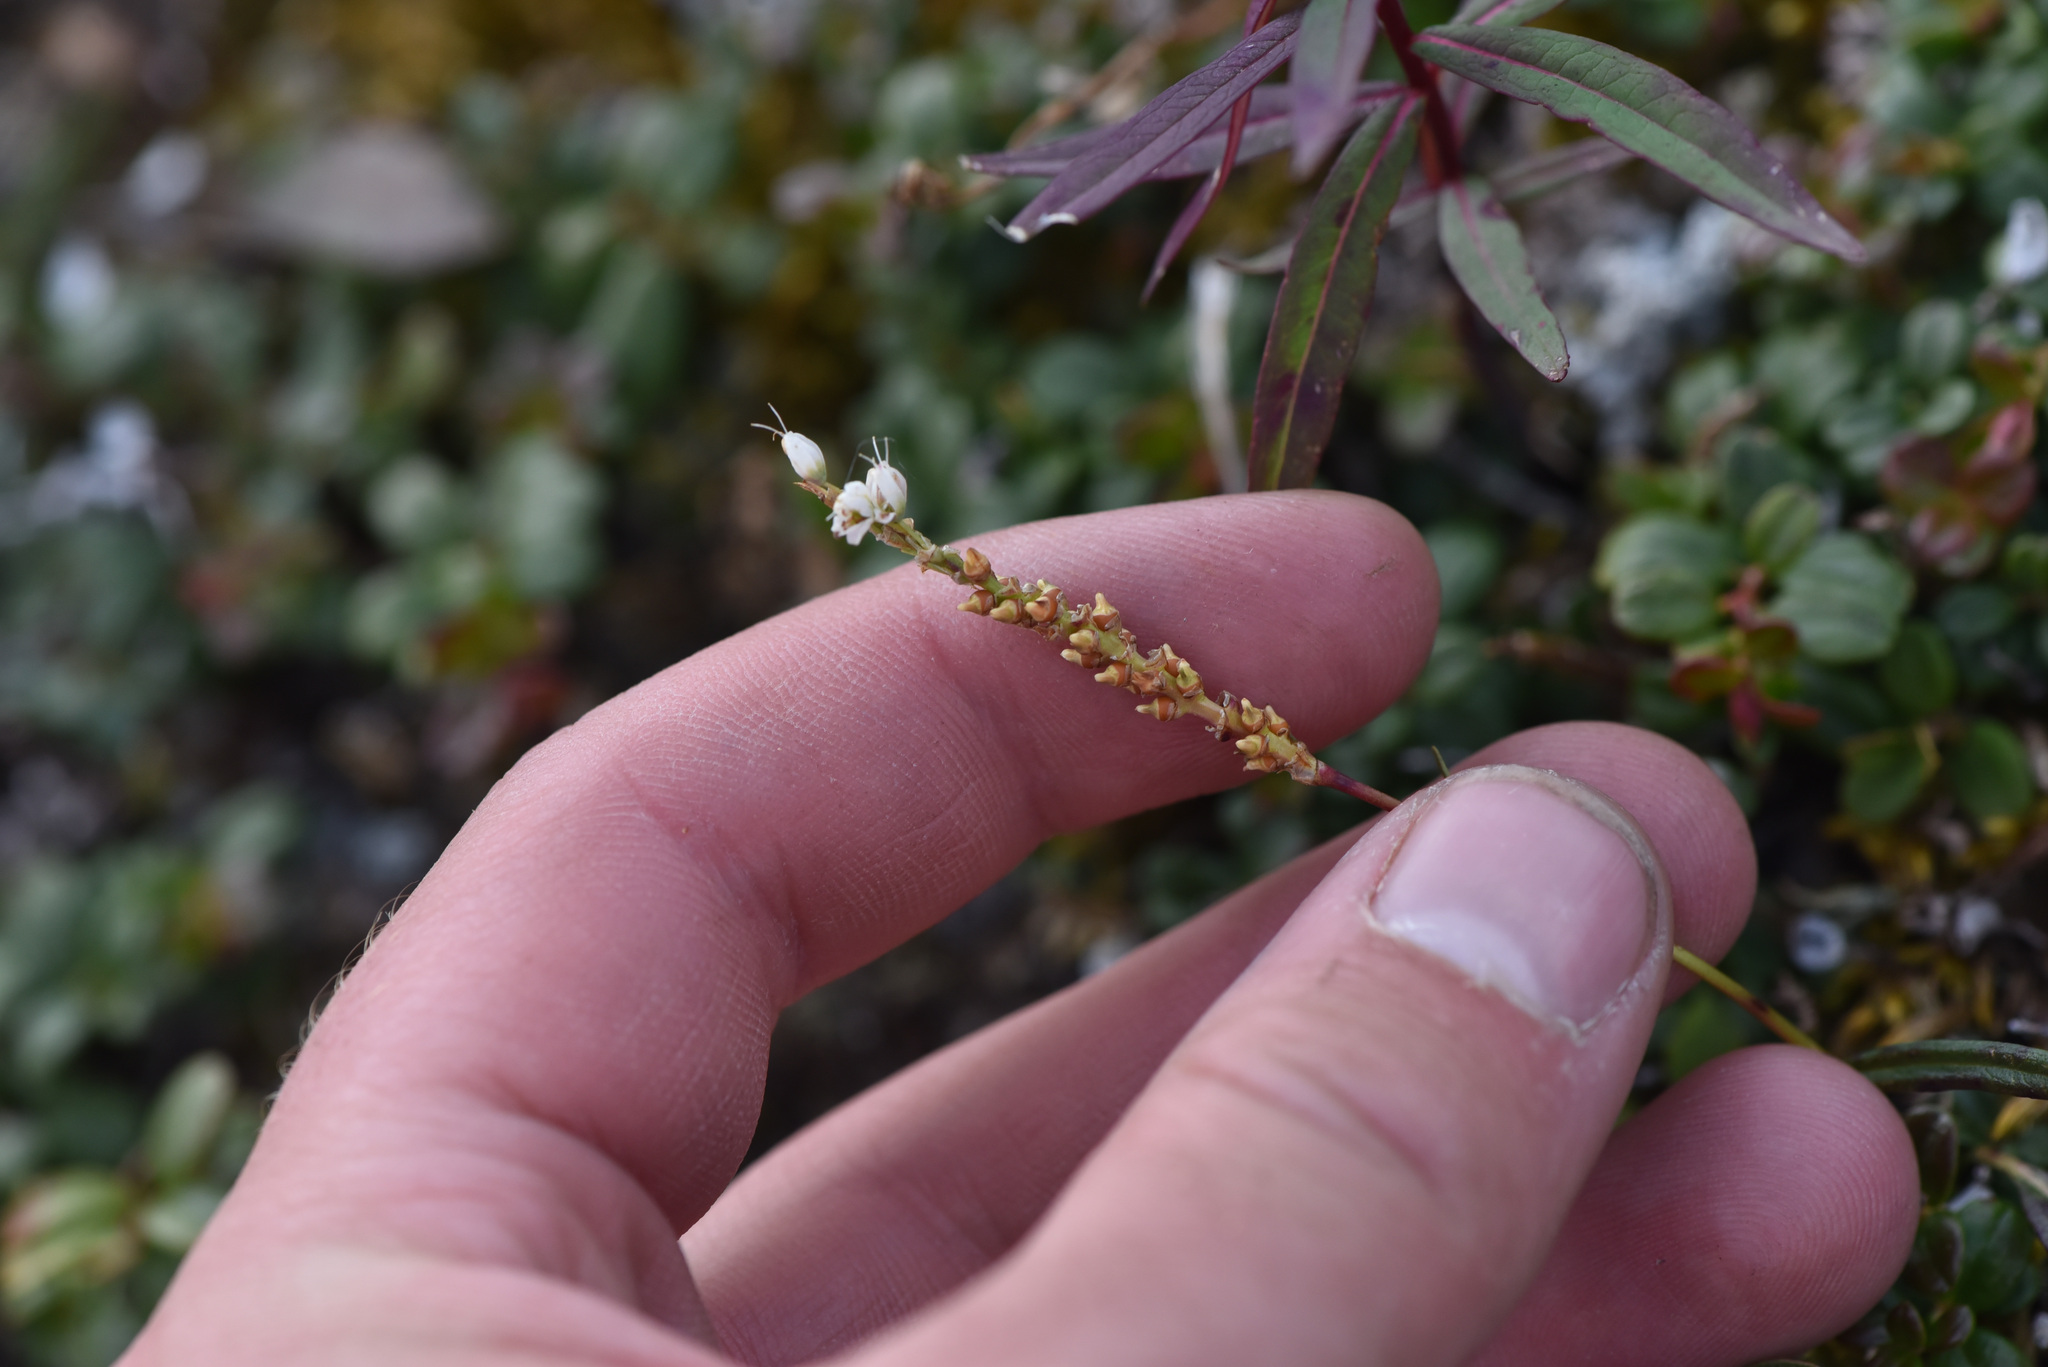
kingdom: Plantae
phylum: Tracheophyta
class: Magnoliopsida
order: Caryophyllales
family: Polygonaceae
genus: Bistorta
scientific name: Bistorta vivipara
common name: Alpine bistort
